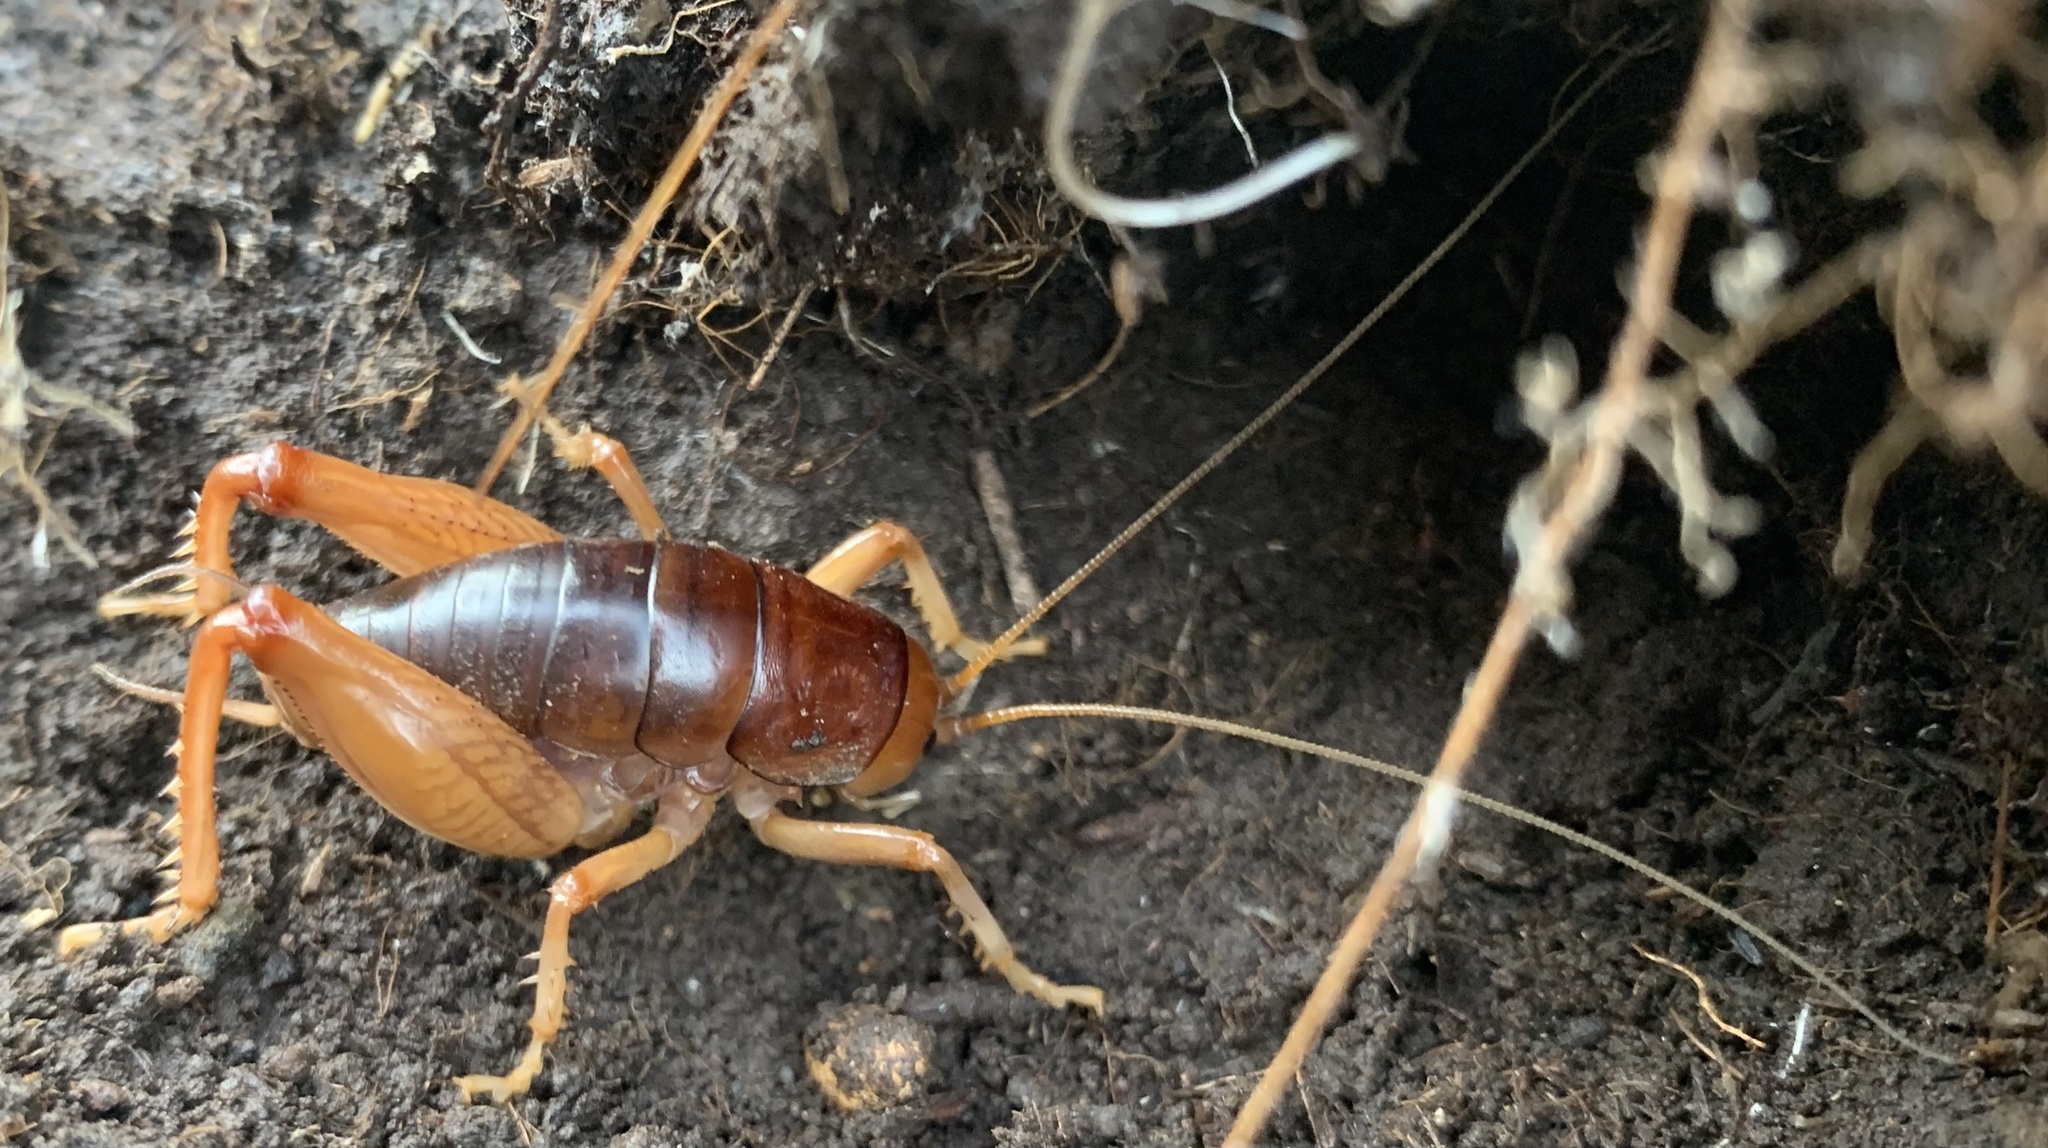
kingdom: Animalia
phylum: Arthropoda
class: Insecta
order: Orthoptera
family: Rhaphidophoridae
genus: Styracosceles
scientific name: Styracosceles neomexicanus
